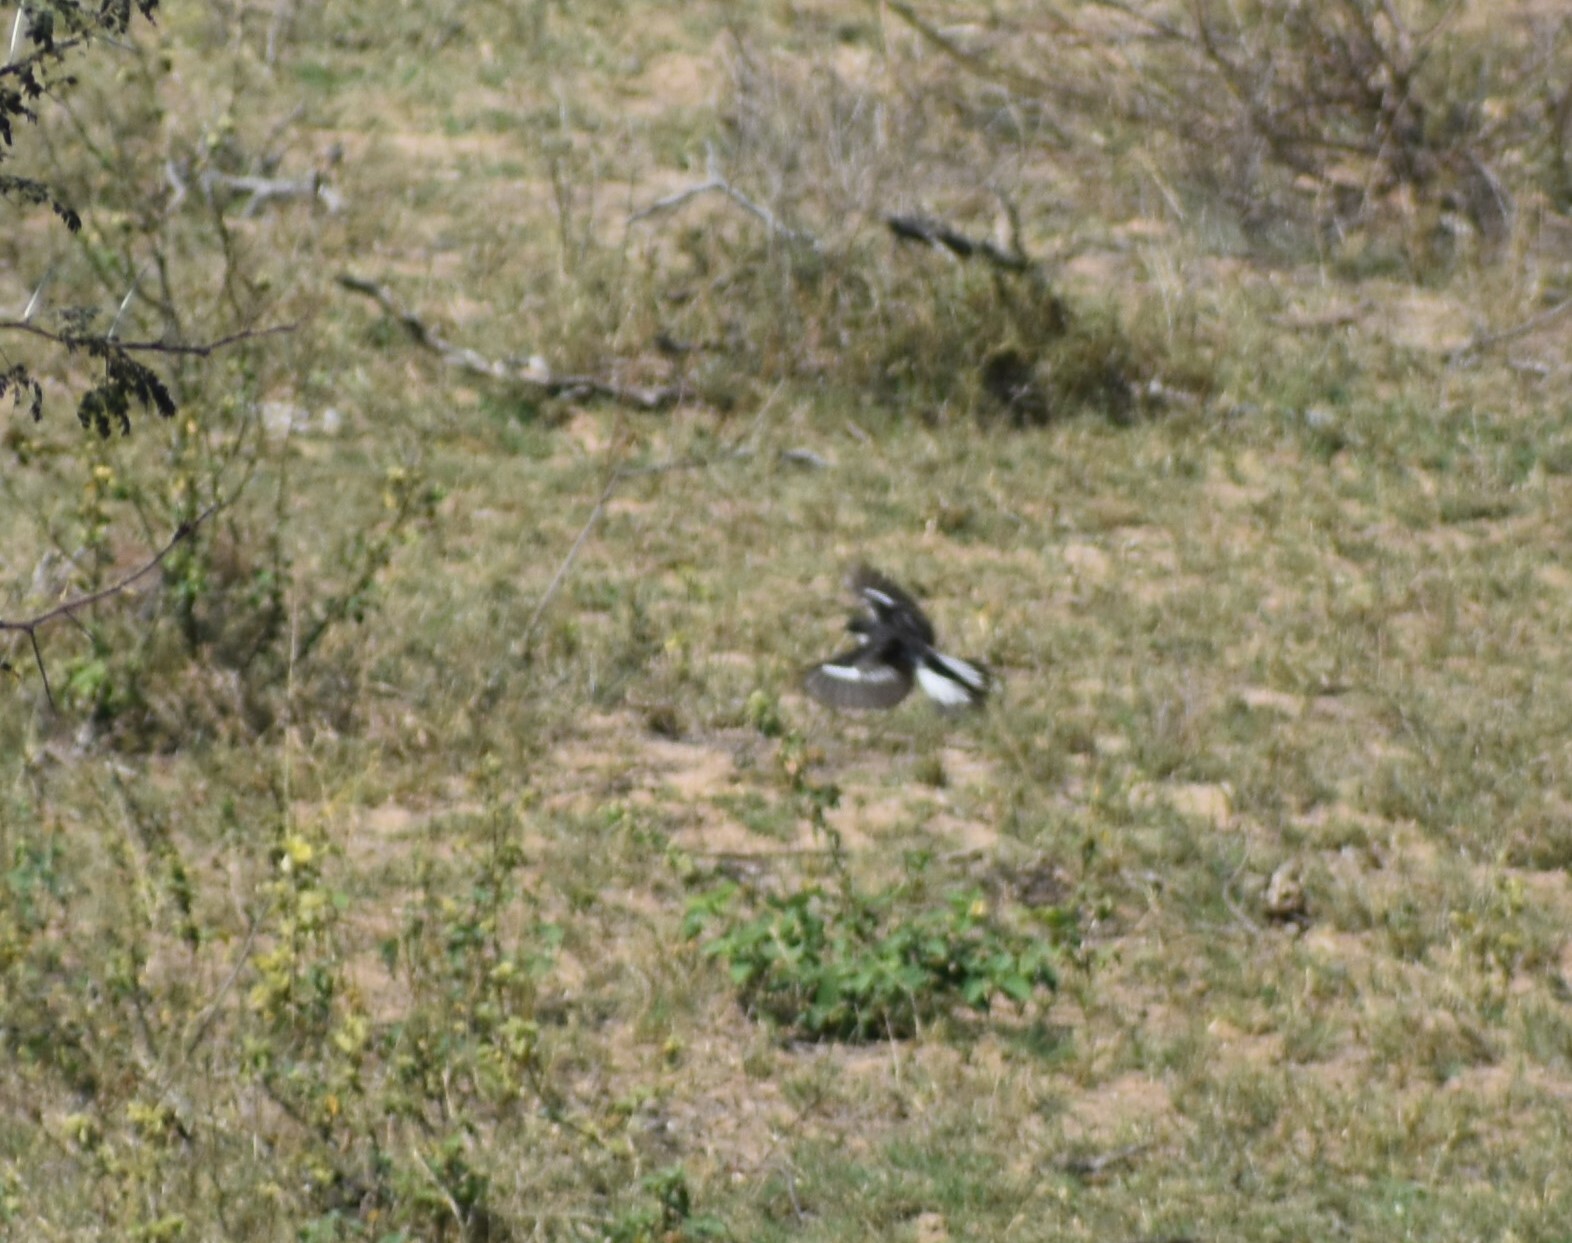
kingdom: Animalia
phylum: Chordata
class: Aves
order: Passeriformes
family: Muscicapidae
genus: Sigelus
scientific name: Sigelus silens
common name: Fiscal flycatcher
